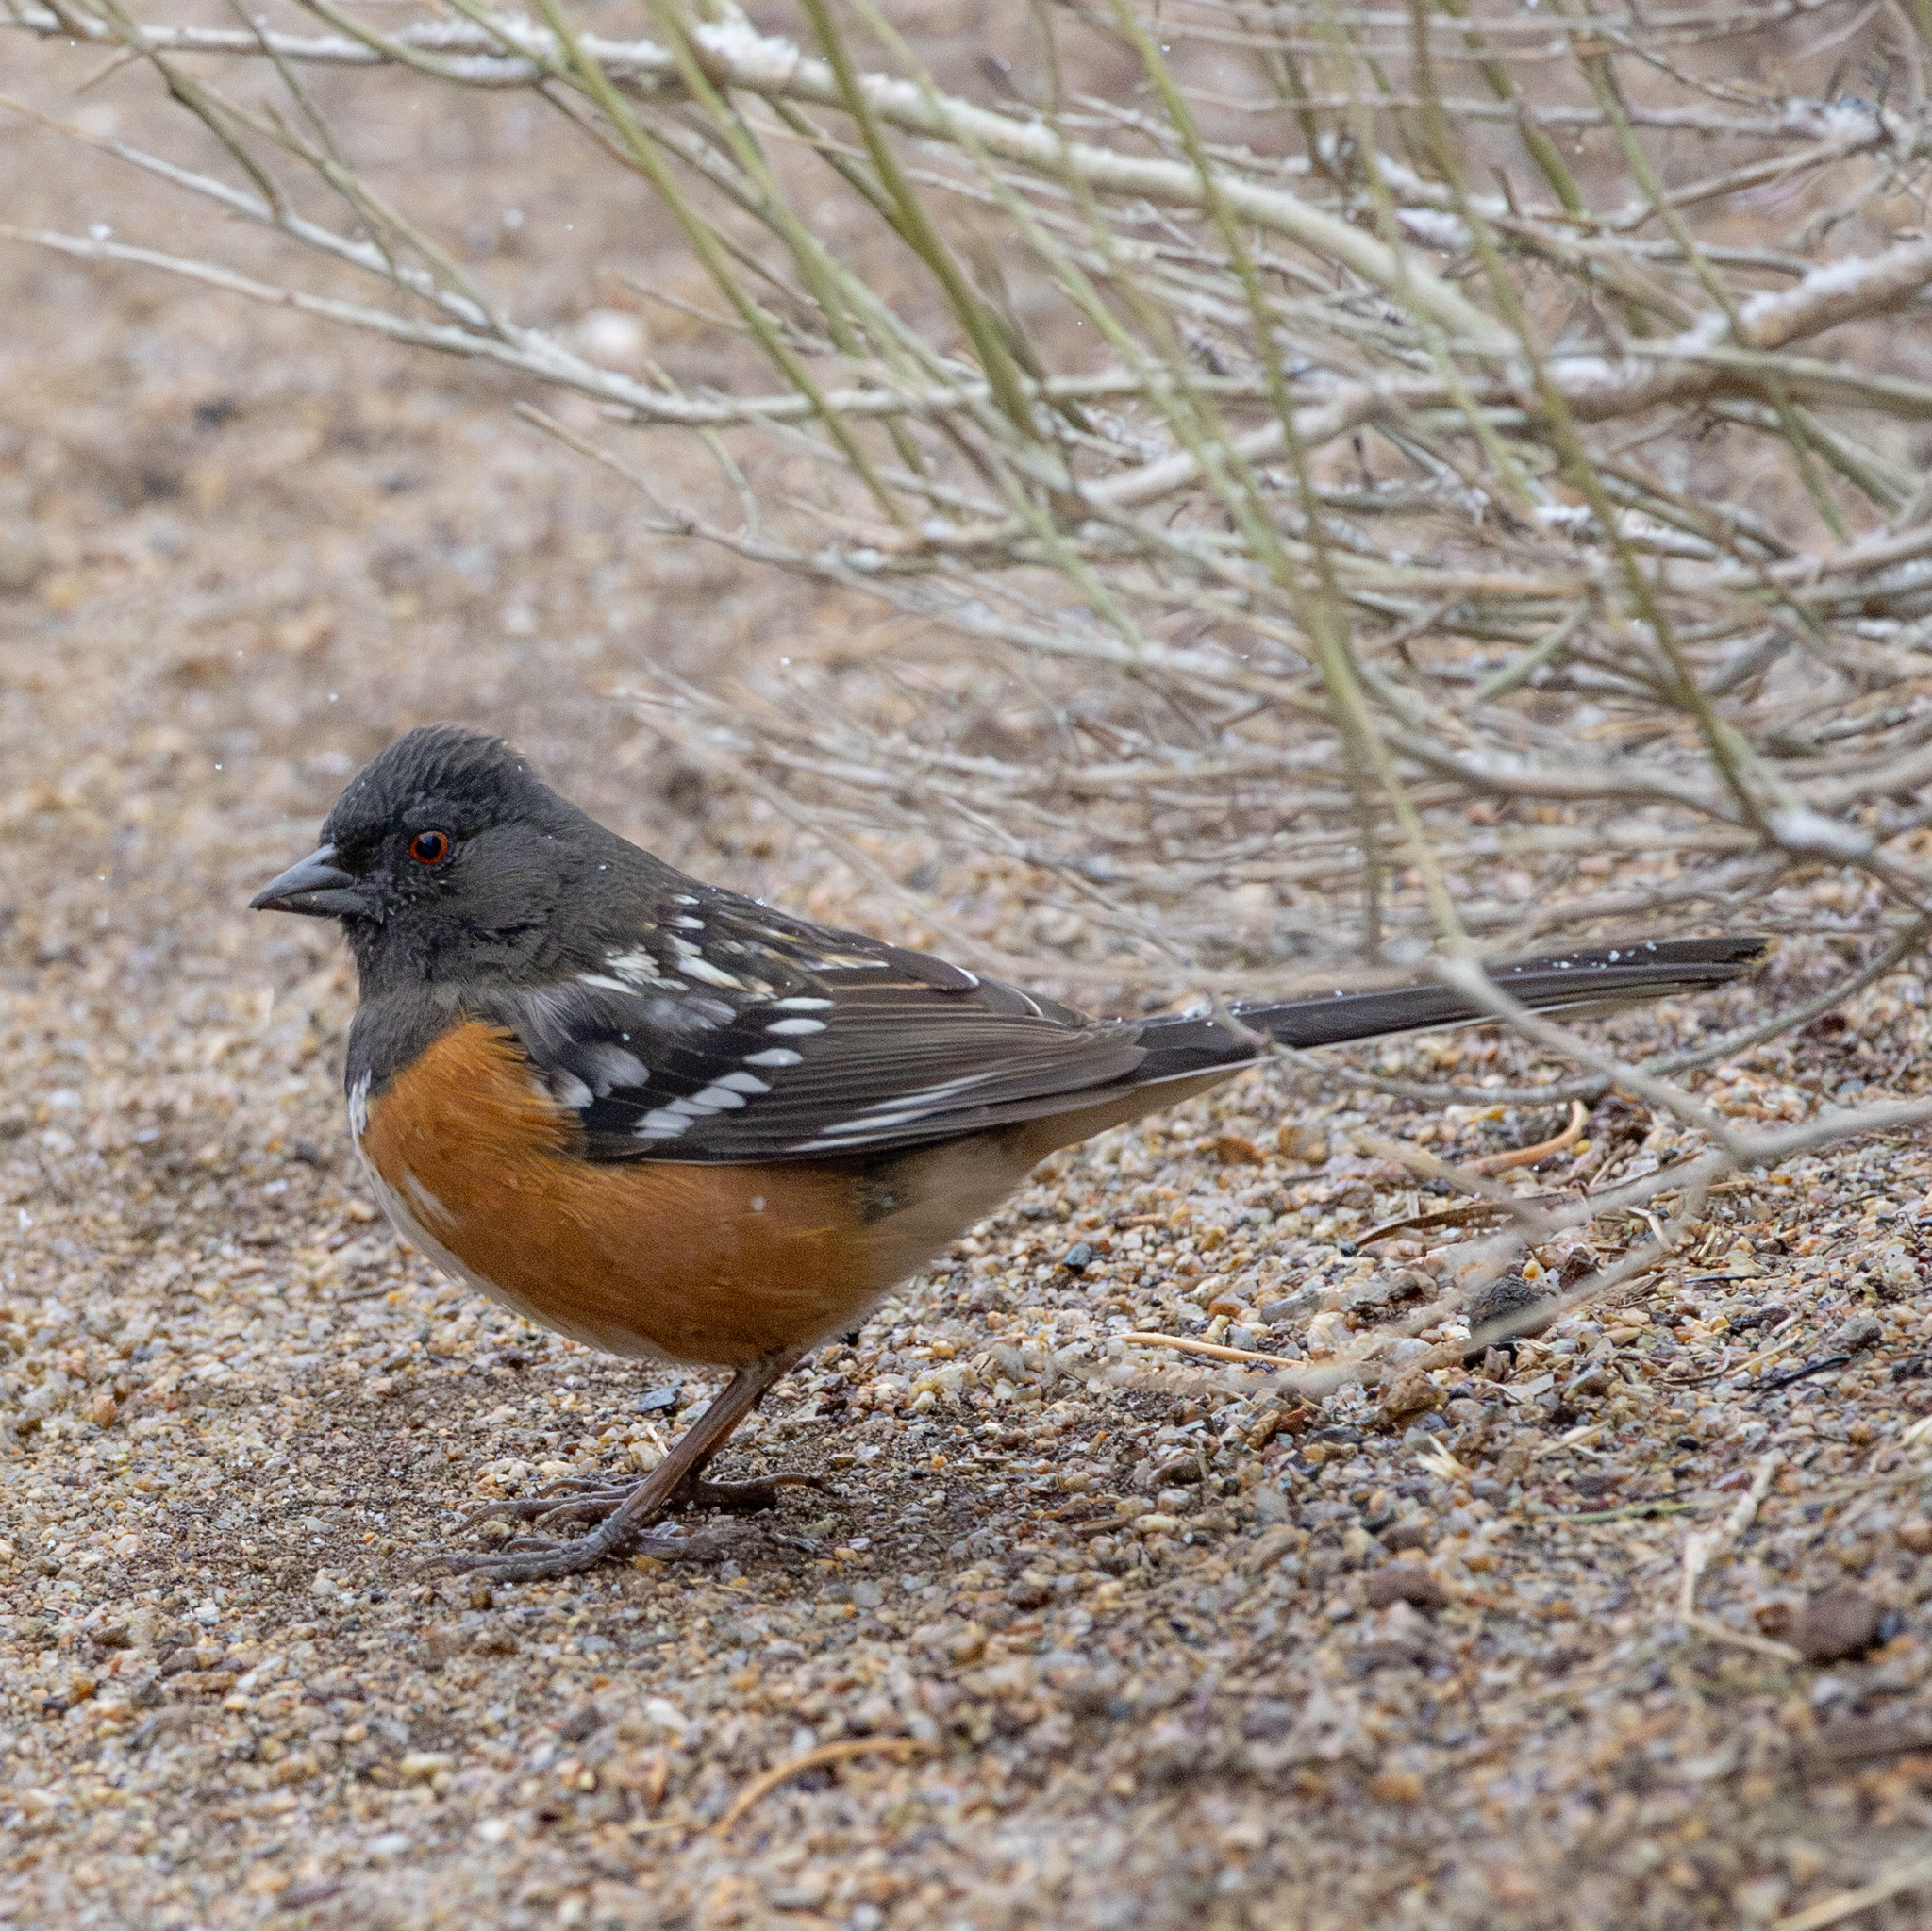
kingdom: Animalia
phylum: Chordata
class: Aves
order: Passeriformes
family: Passerellidae
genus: Pipilo
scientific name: Pipilo maculatus
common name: Spotted towhee
